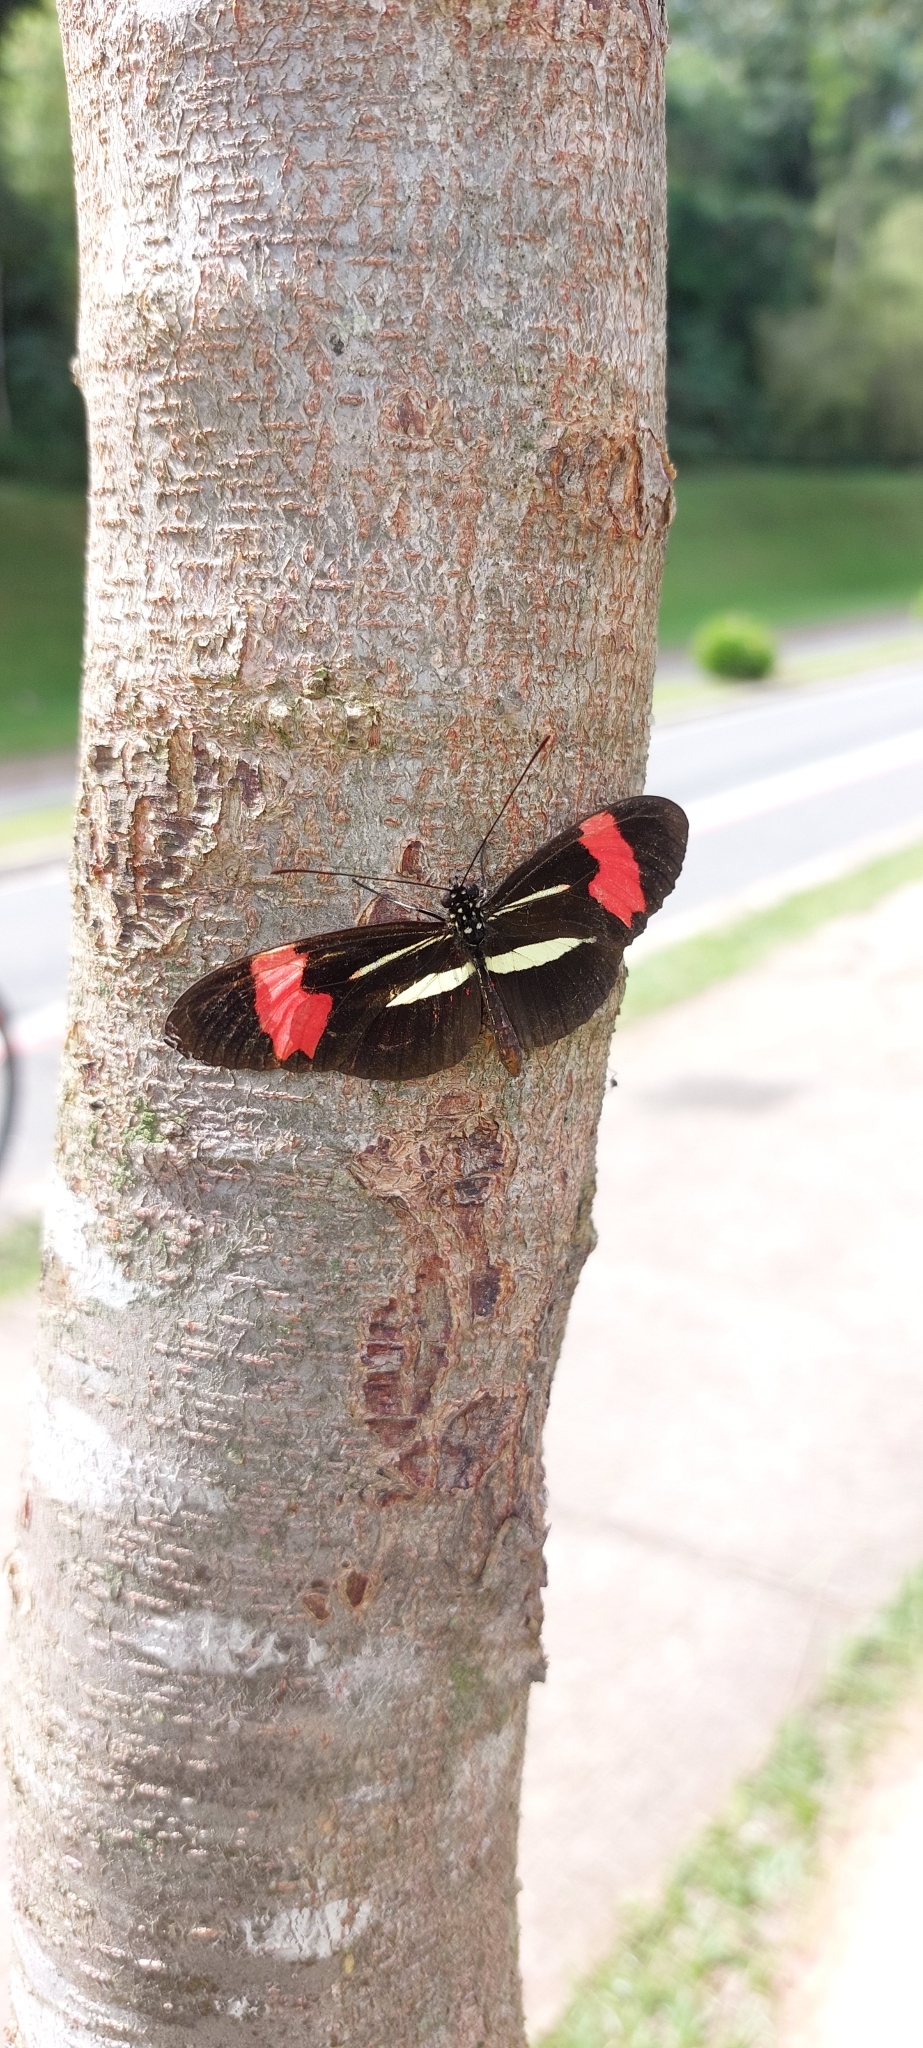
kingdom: Animalia
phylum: Arthropoda
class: Insecta
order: Lepidoptera
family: Nymphalidae
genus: Heliconius
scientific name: Heliconius erato
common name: Common patch longwing
